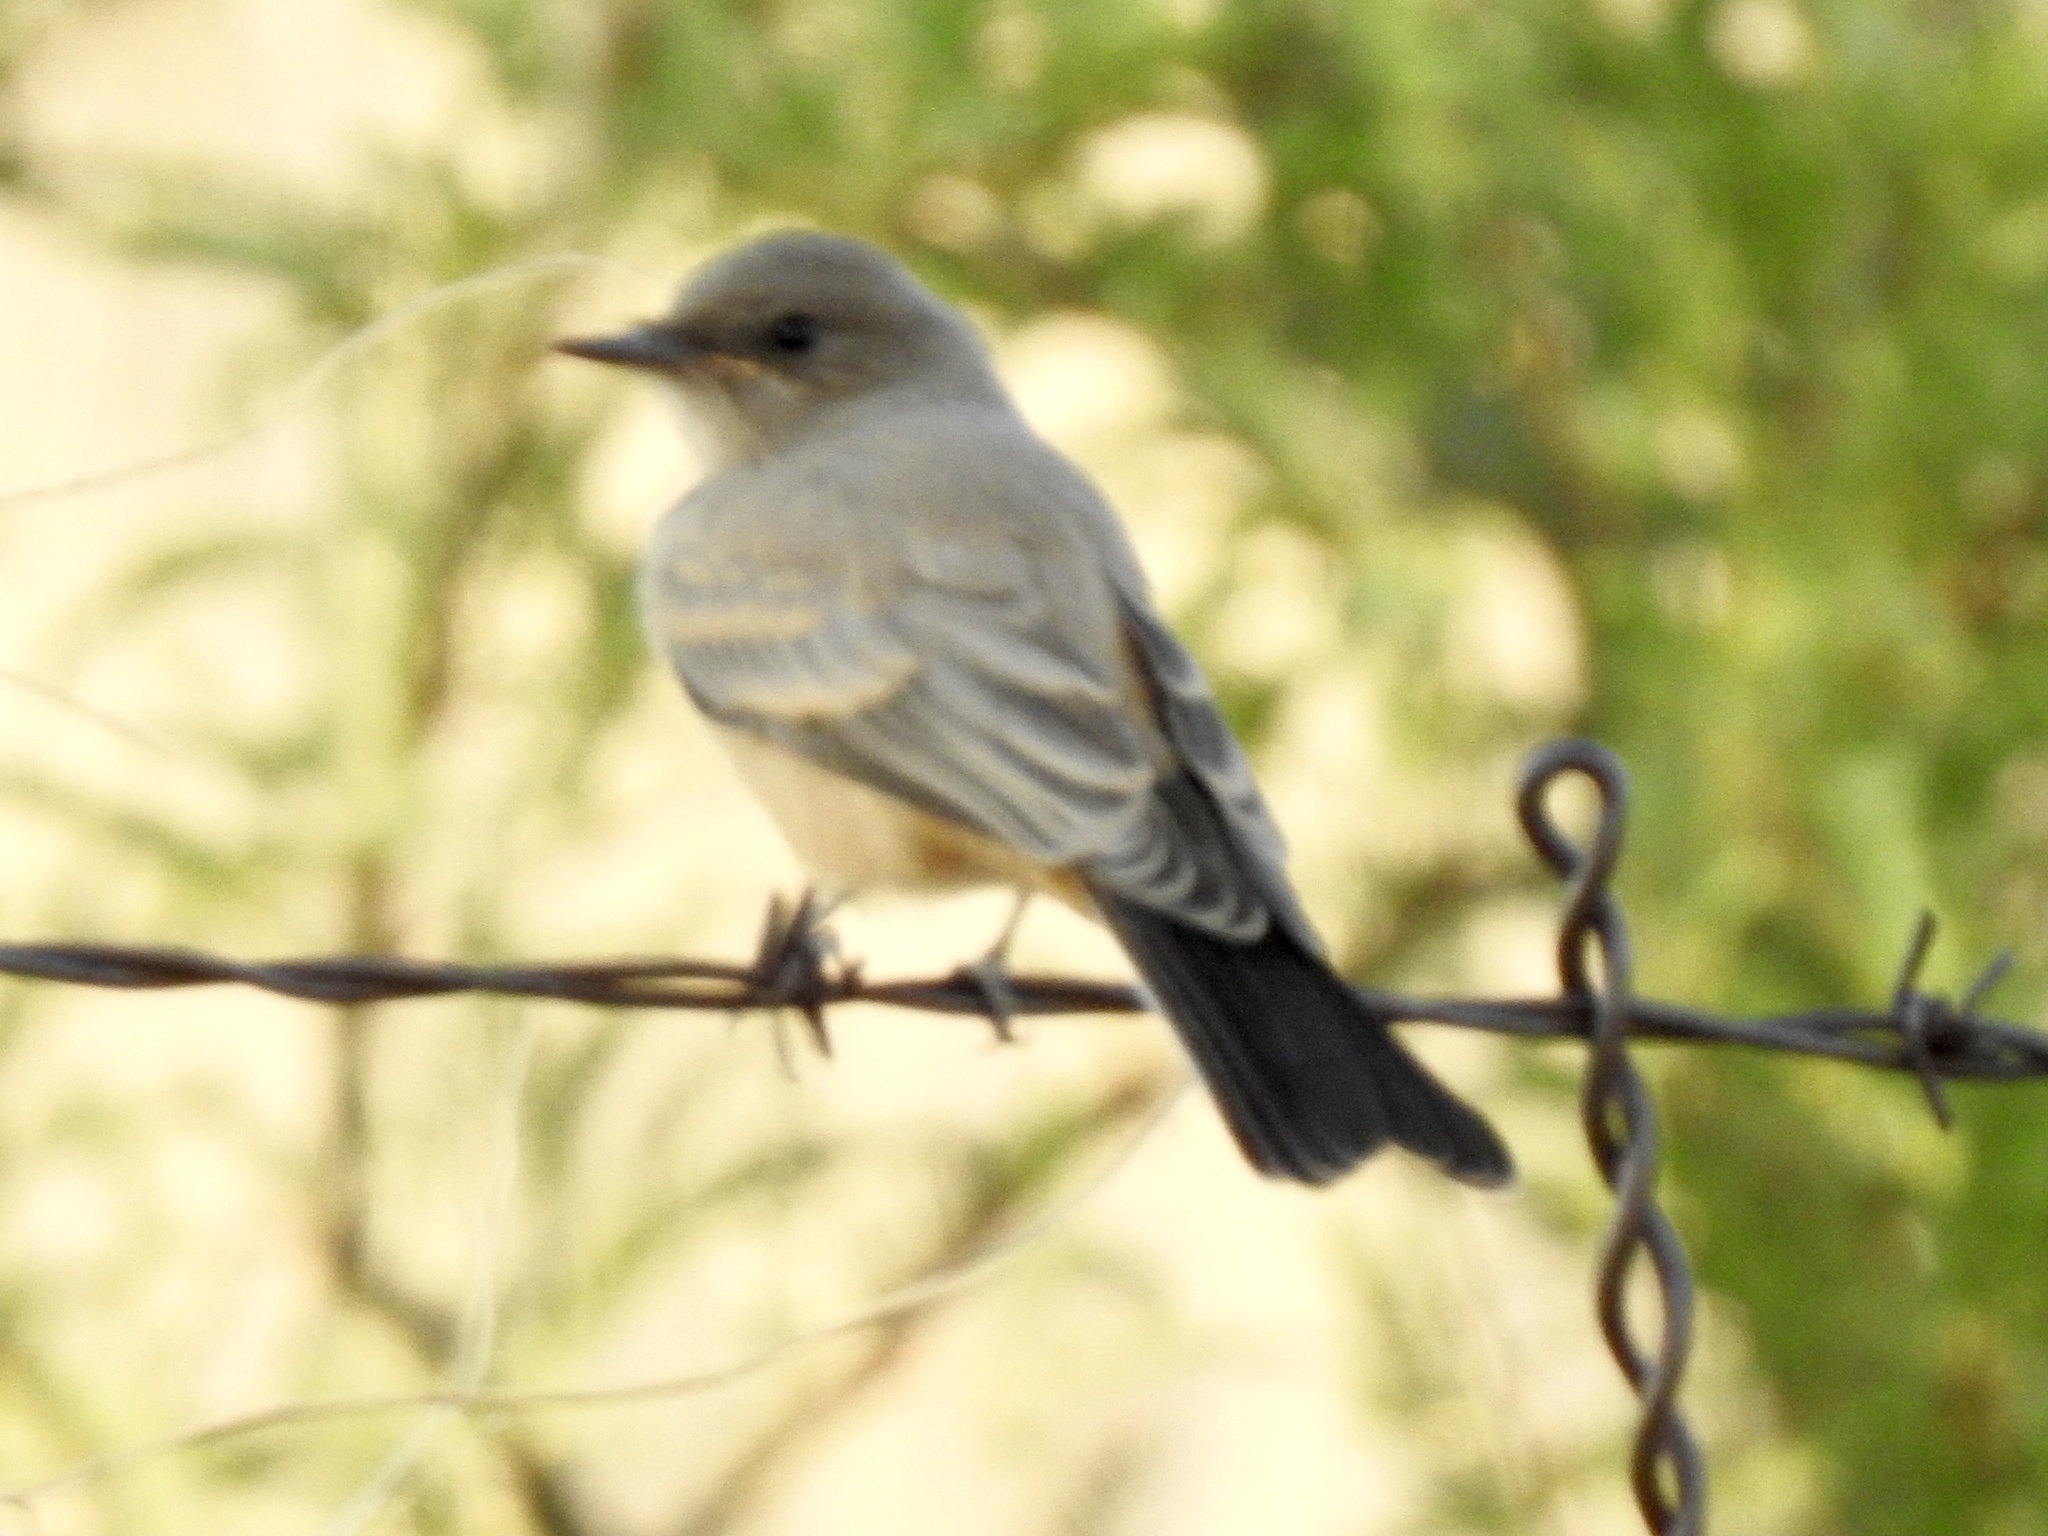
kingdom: Animalia
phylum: Chordata
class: Aves
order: Passeriformes
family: Tyrannidae
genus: Sayornis
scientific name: Sayornis saya
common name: Say's phoebe
